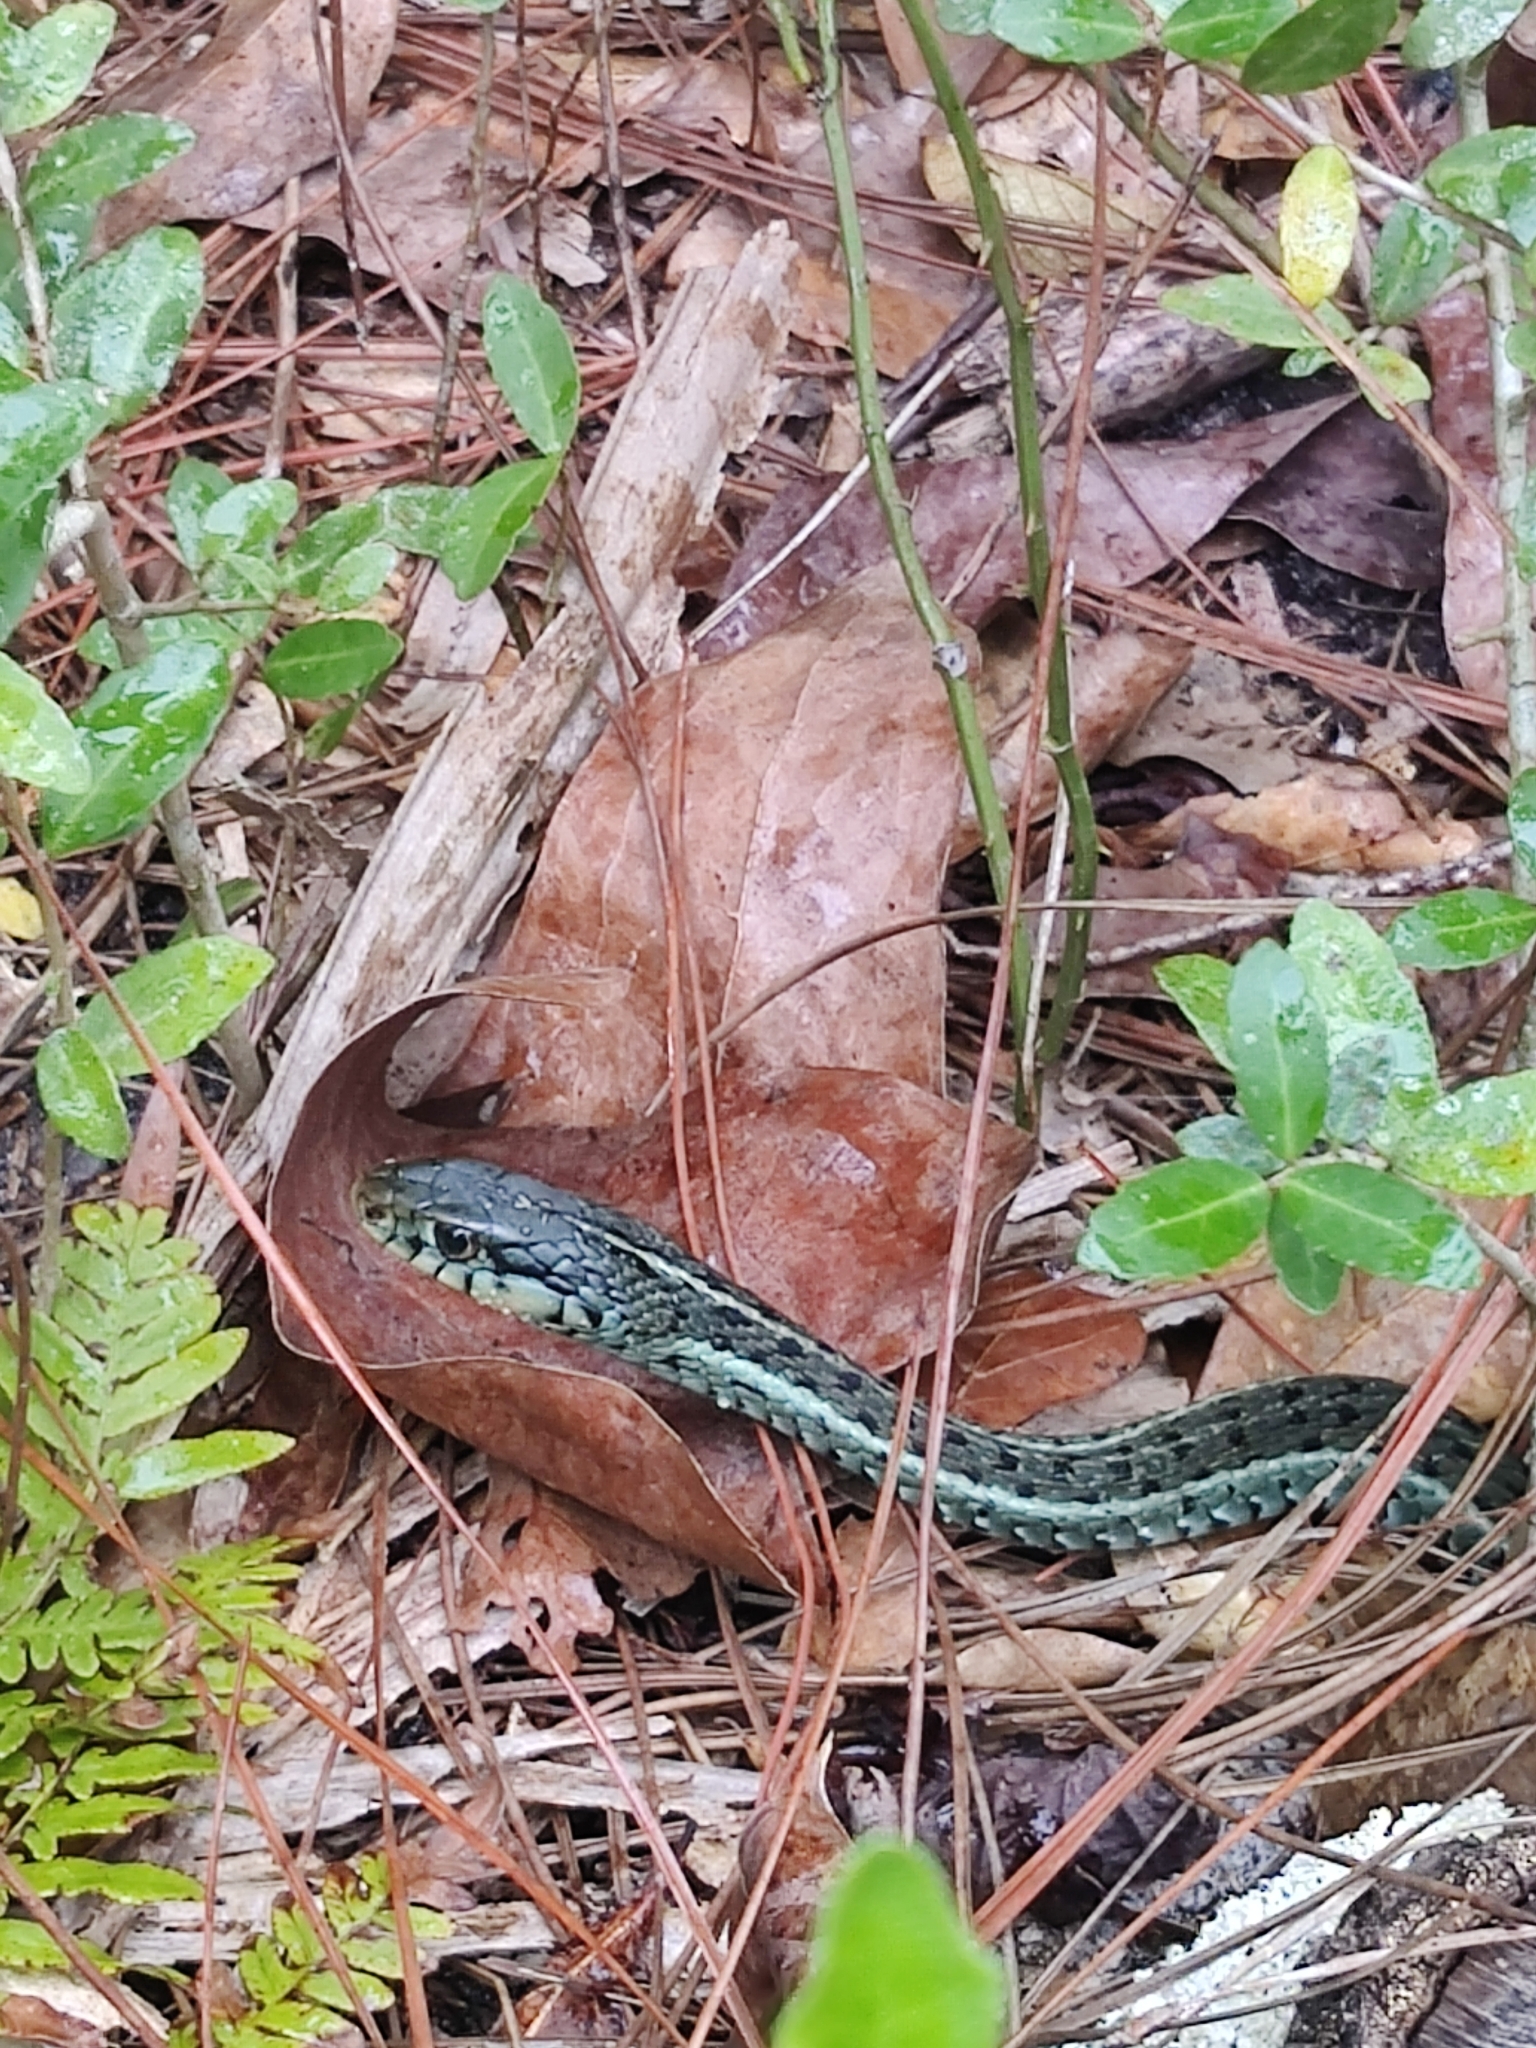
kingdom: Animalia
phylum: Chordata
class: Squamata
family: Colubridae
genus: Thamnophis
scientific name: Thamnophis sirtalis
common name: Common garter snake
